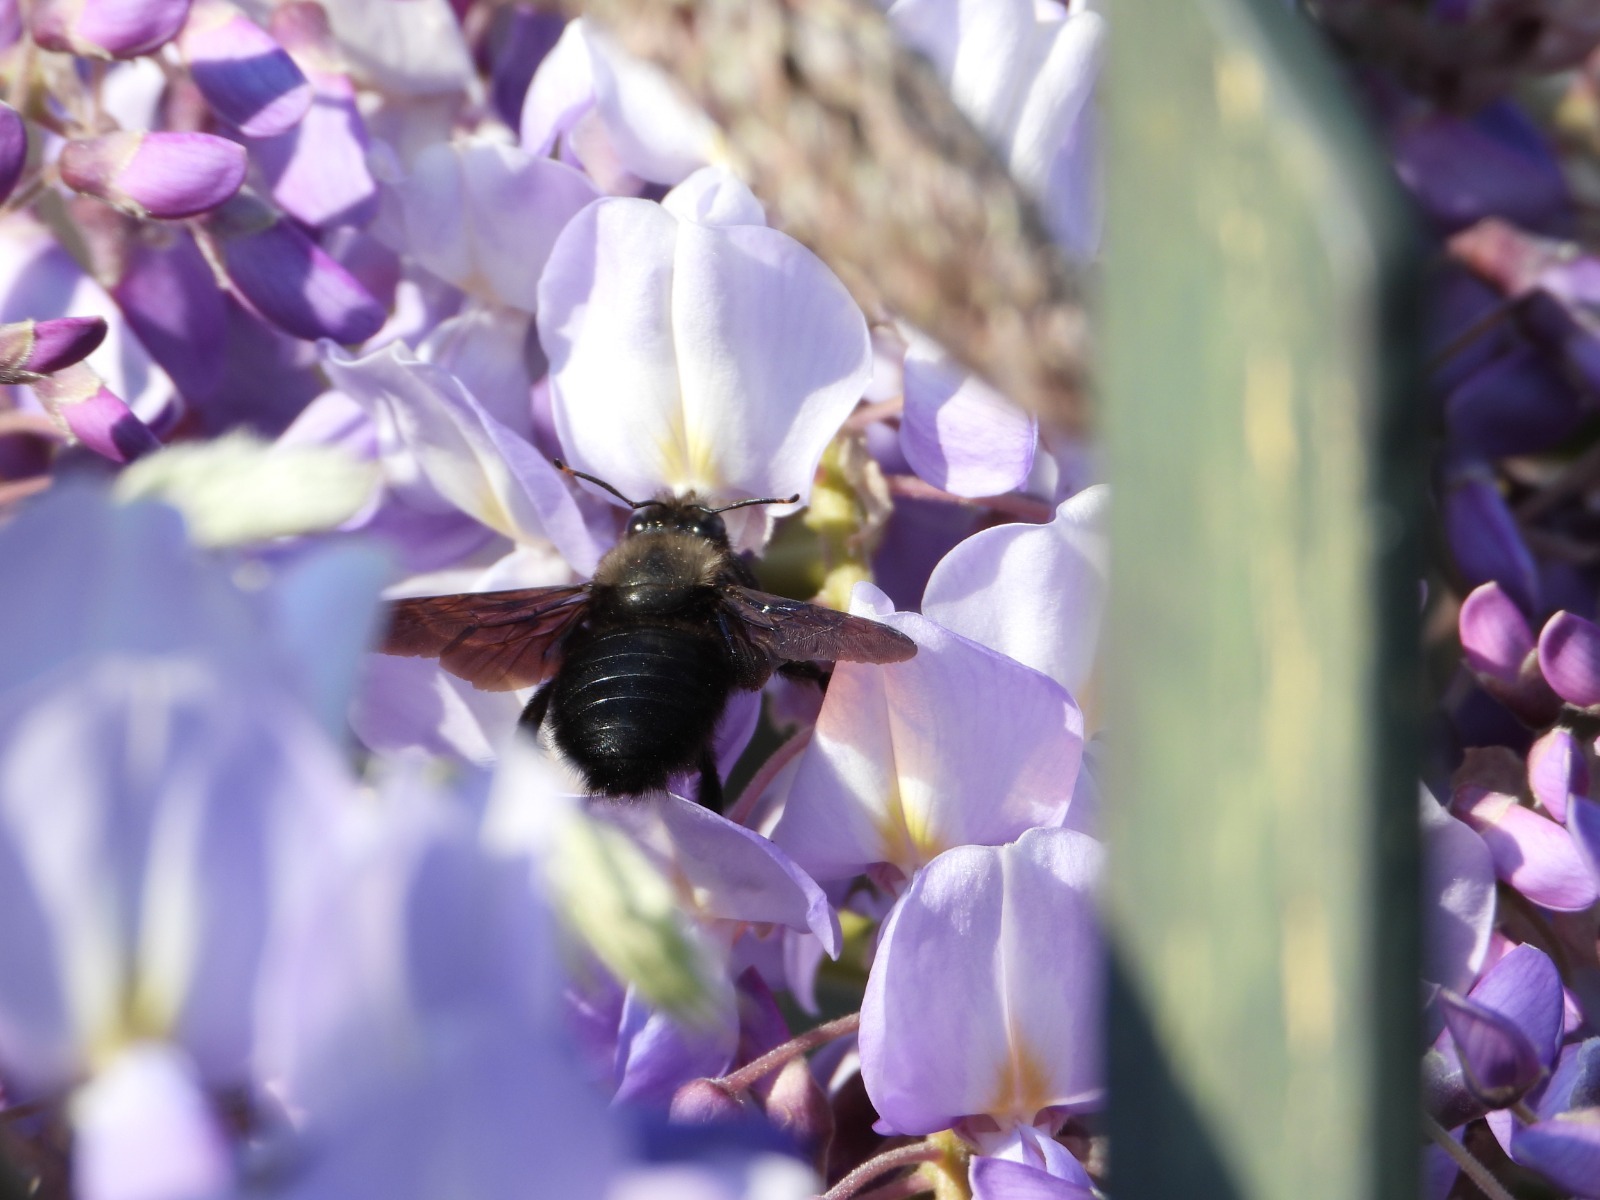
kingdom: Animalia
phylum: Arthropoda
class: Insecta
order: Hymenoptera
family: Apidae
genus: Xylocopa
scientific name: Xylocopa violacea
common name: Violet carpenter bee
